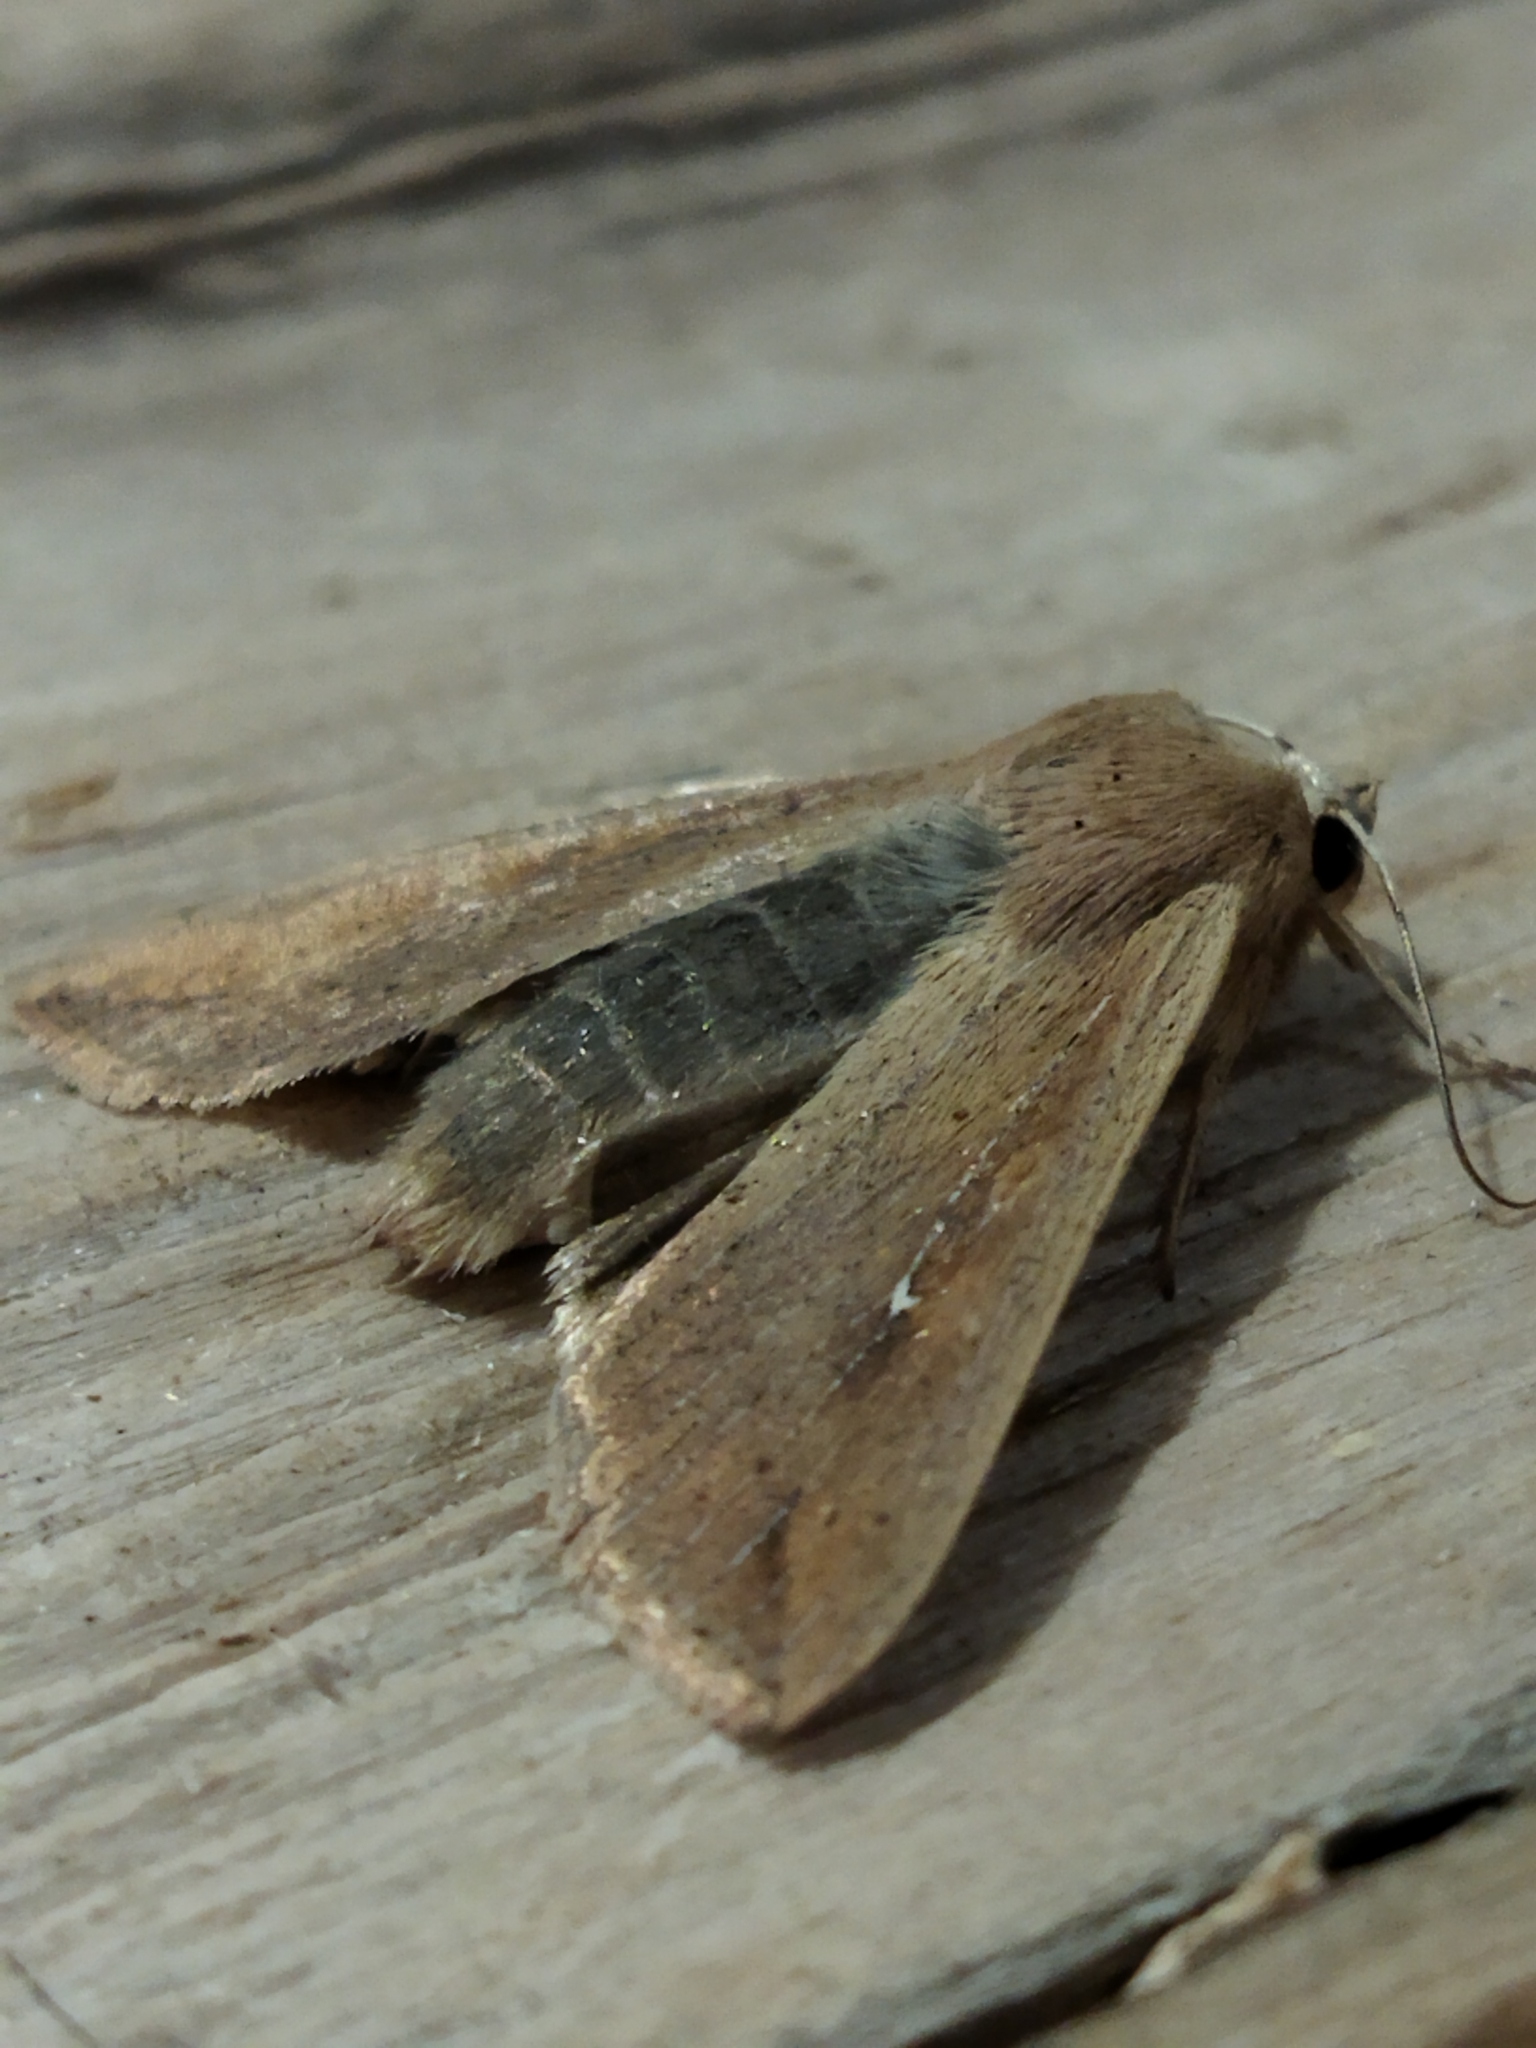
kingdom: Animalia
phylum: Arthropoda
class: Insecta
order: Lepidoptera
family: Noctuidae
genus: Mythimna
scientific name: Mythimna unipuncta
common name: White-speck
